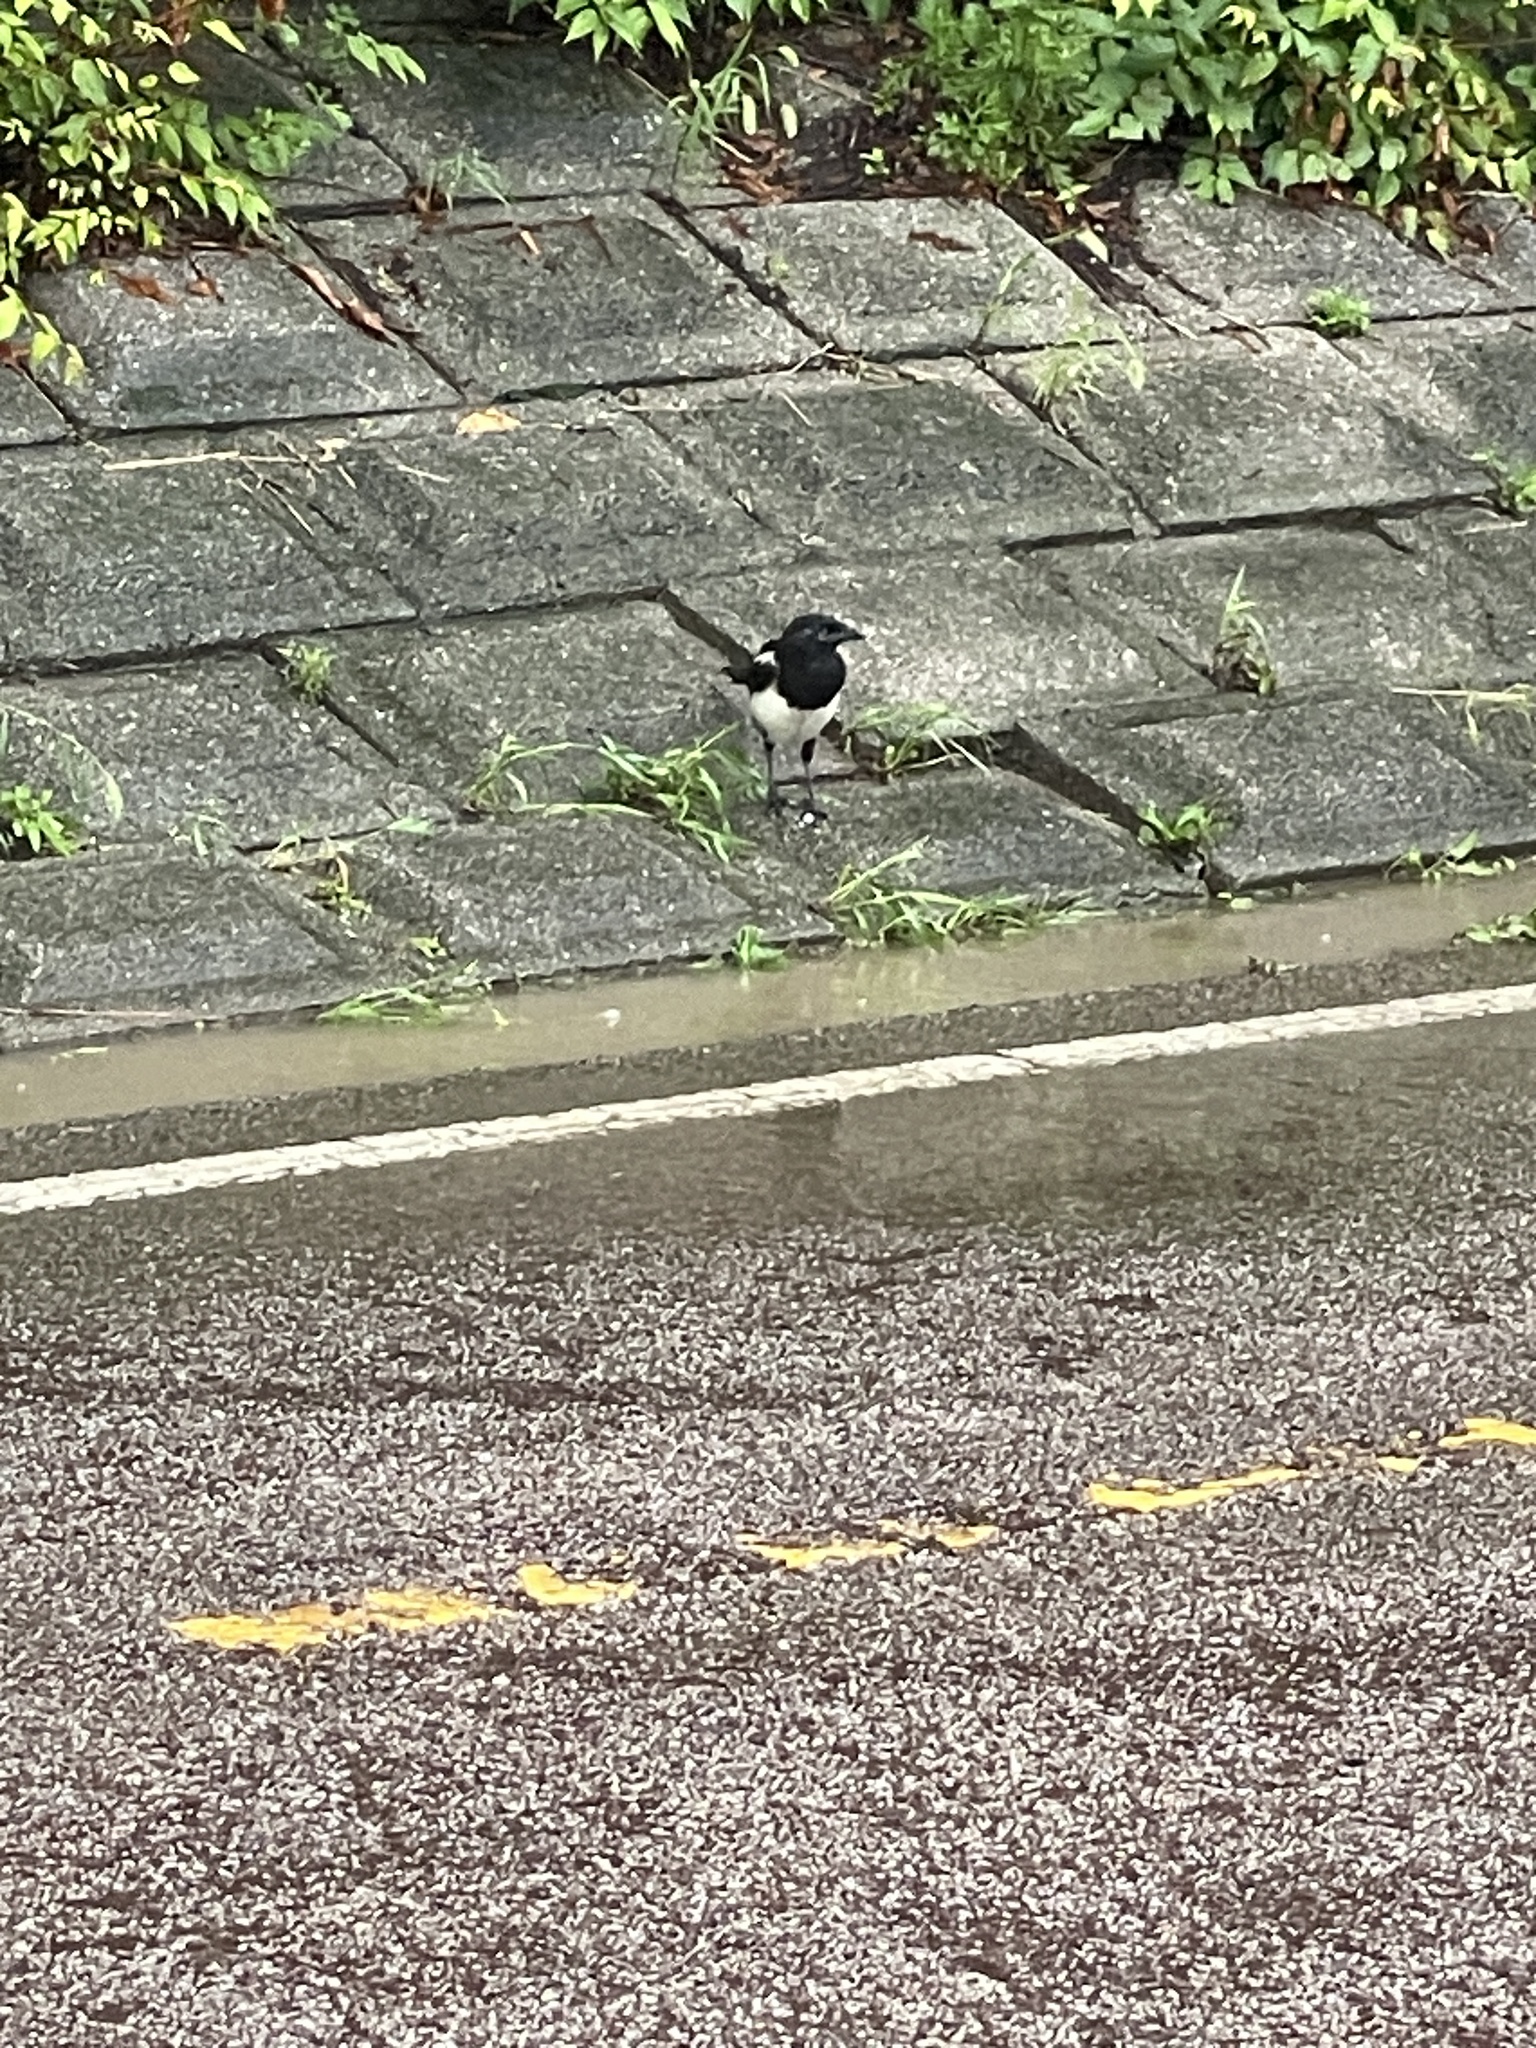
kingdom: Animalia
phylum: Chordata
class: Aves
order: Passeriformes
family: Corvidae
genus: Pica
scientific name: Pica serica
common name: Oriental magpie
